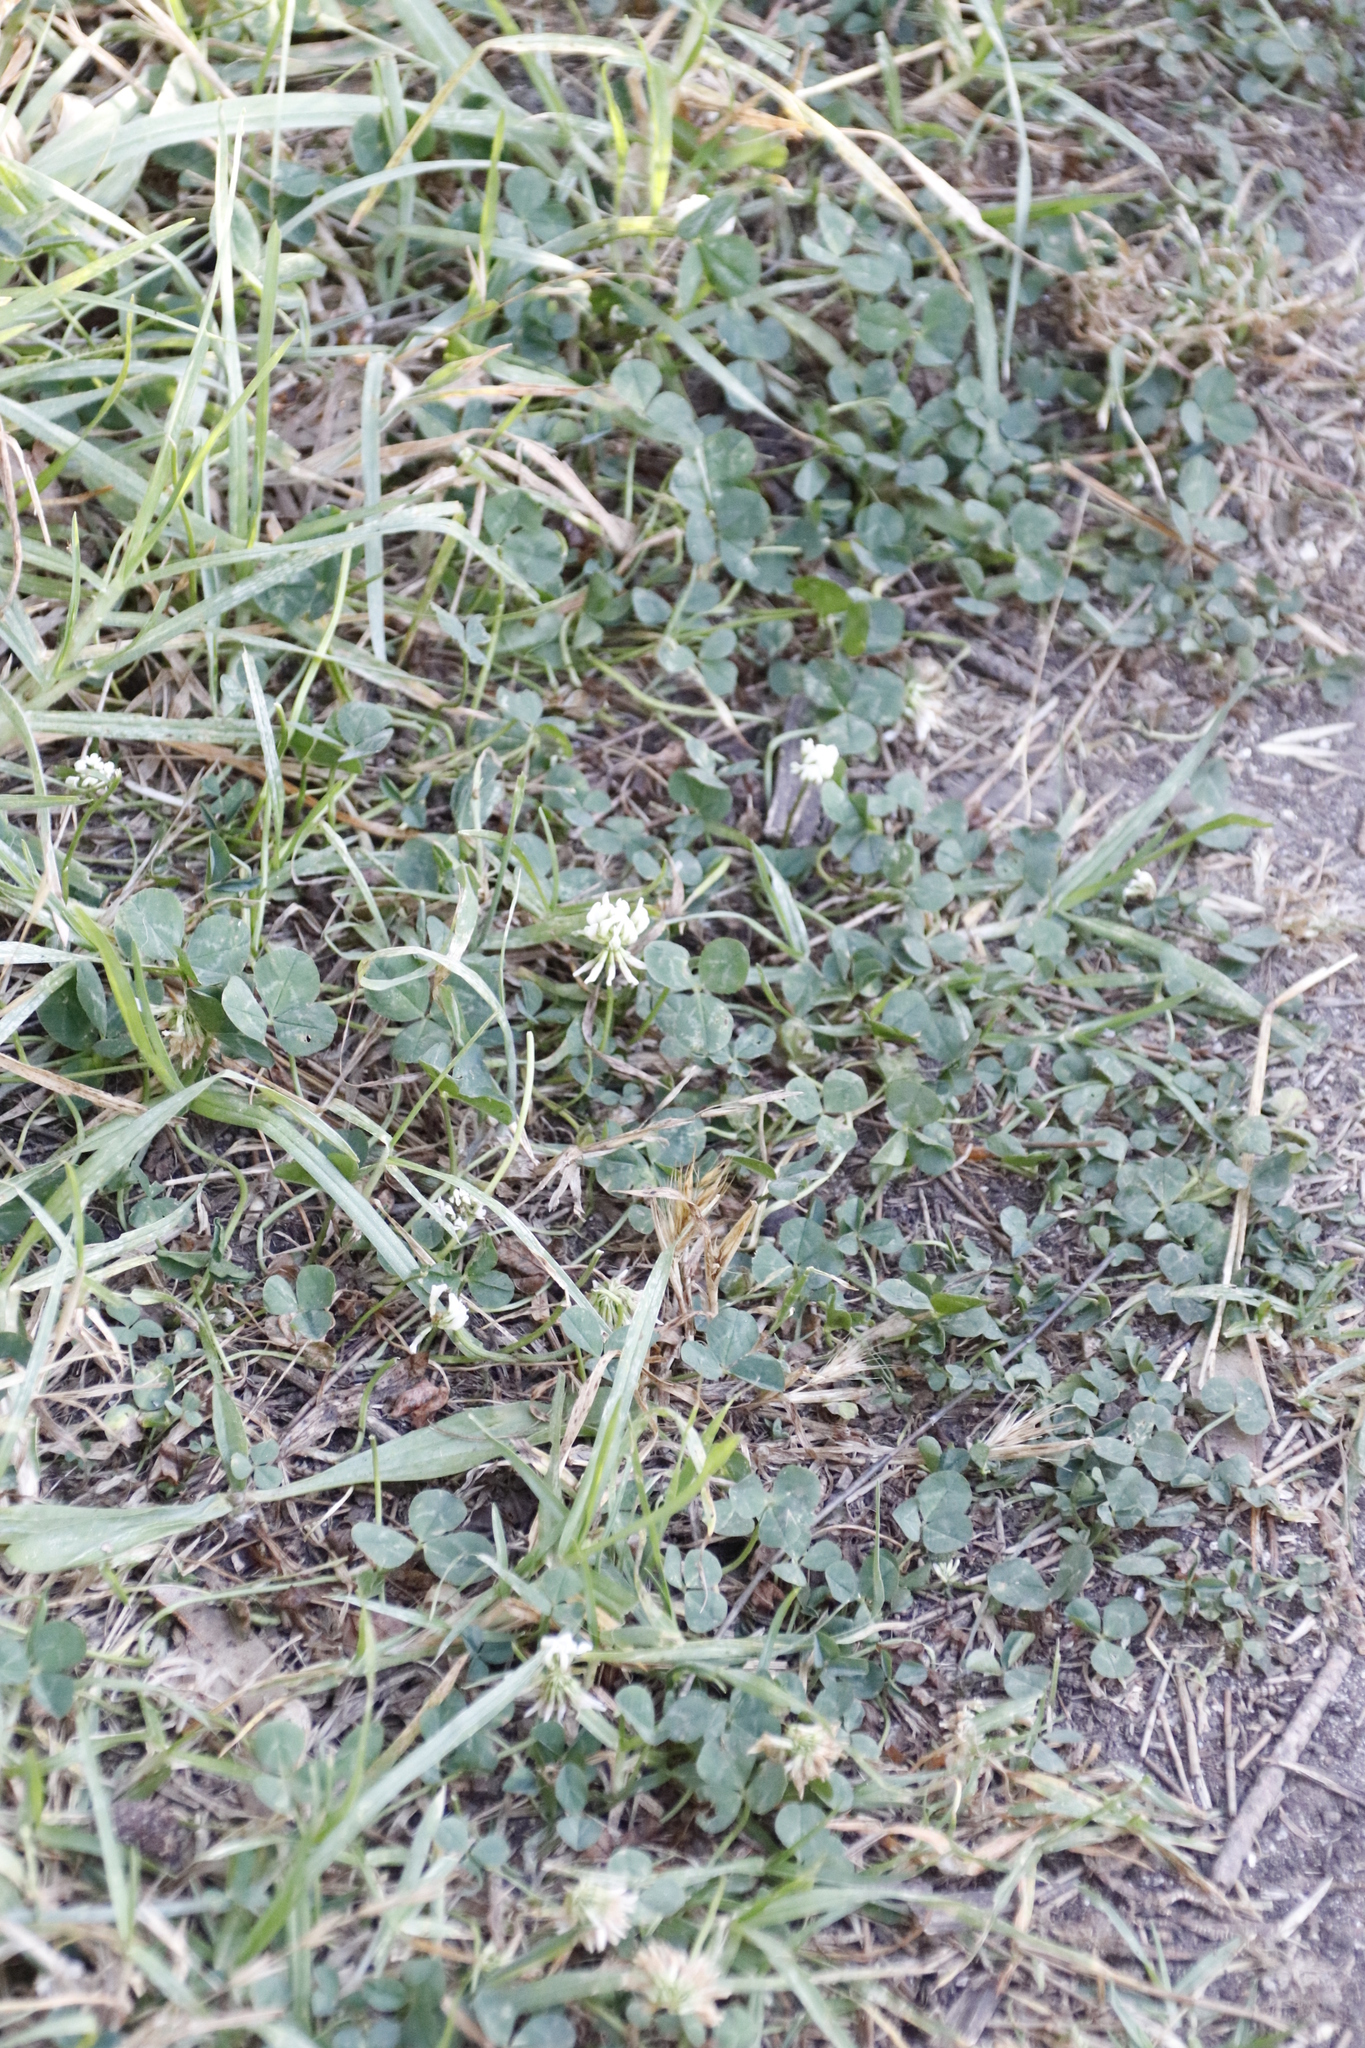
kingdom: Plantae
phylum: Tracheophyta
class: Magnoliopsida
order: Fabales
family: Fabaceae
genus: Trifolium
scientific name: Trifolium repens
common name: White clover
